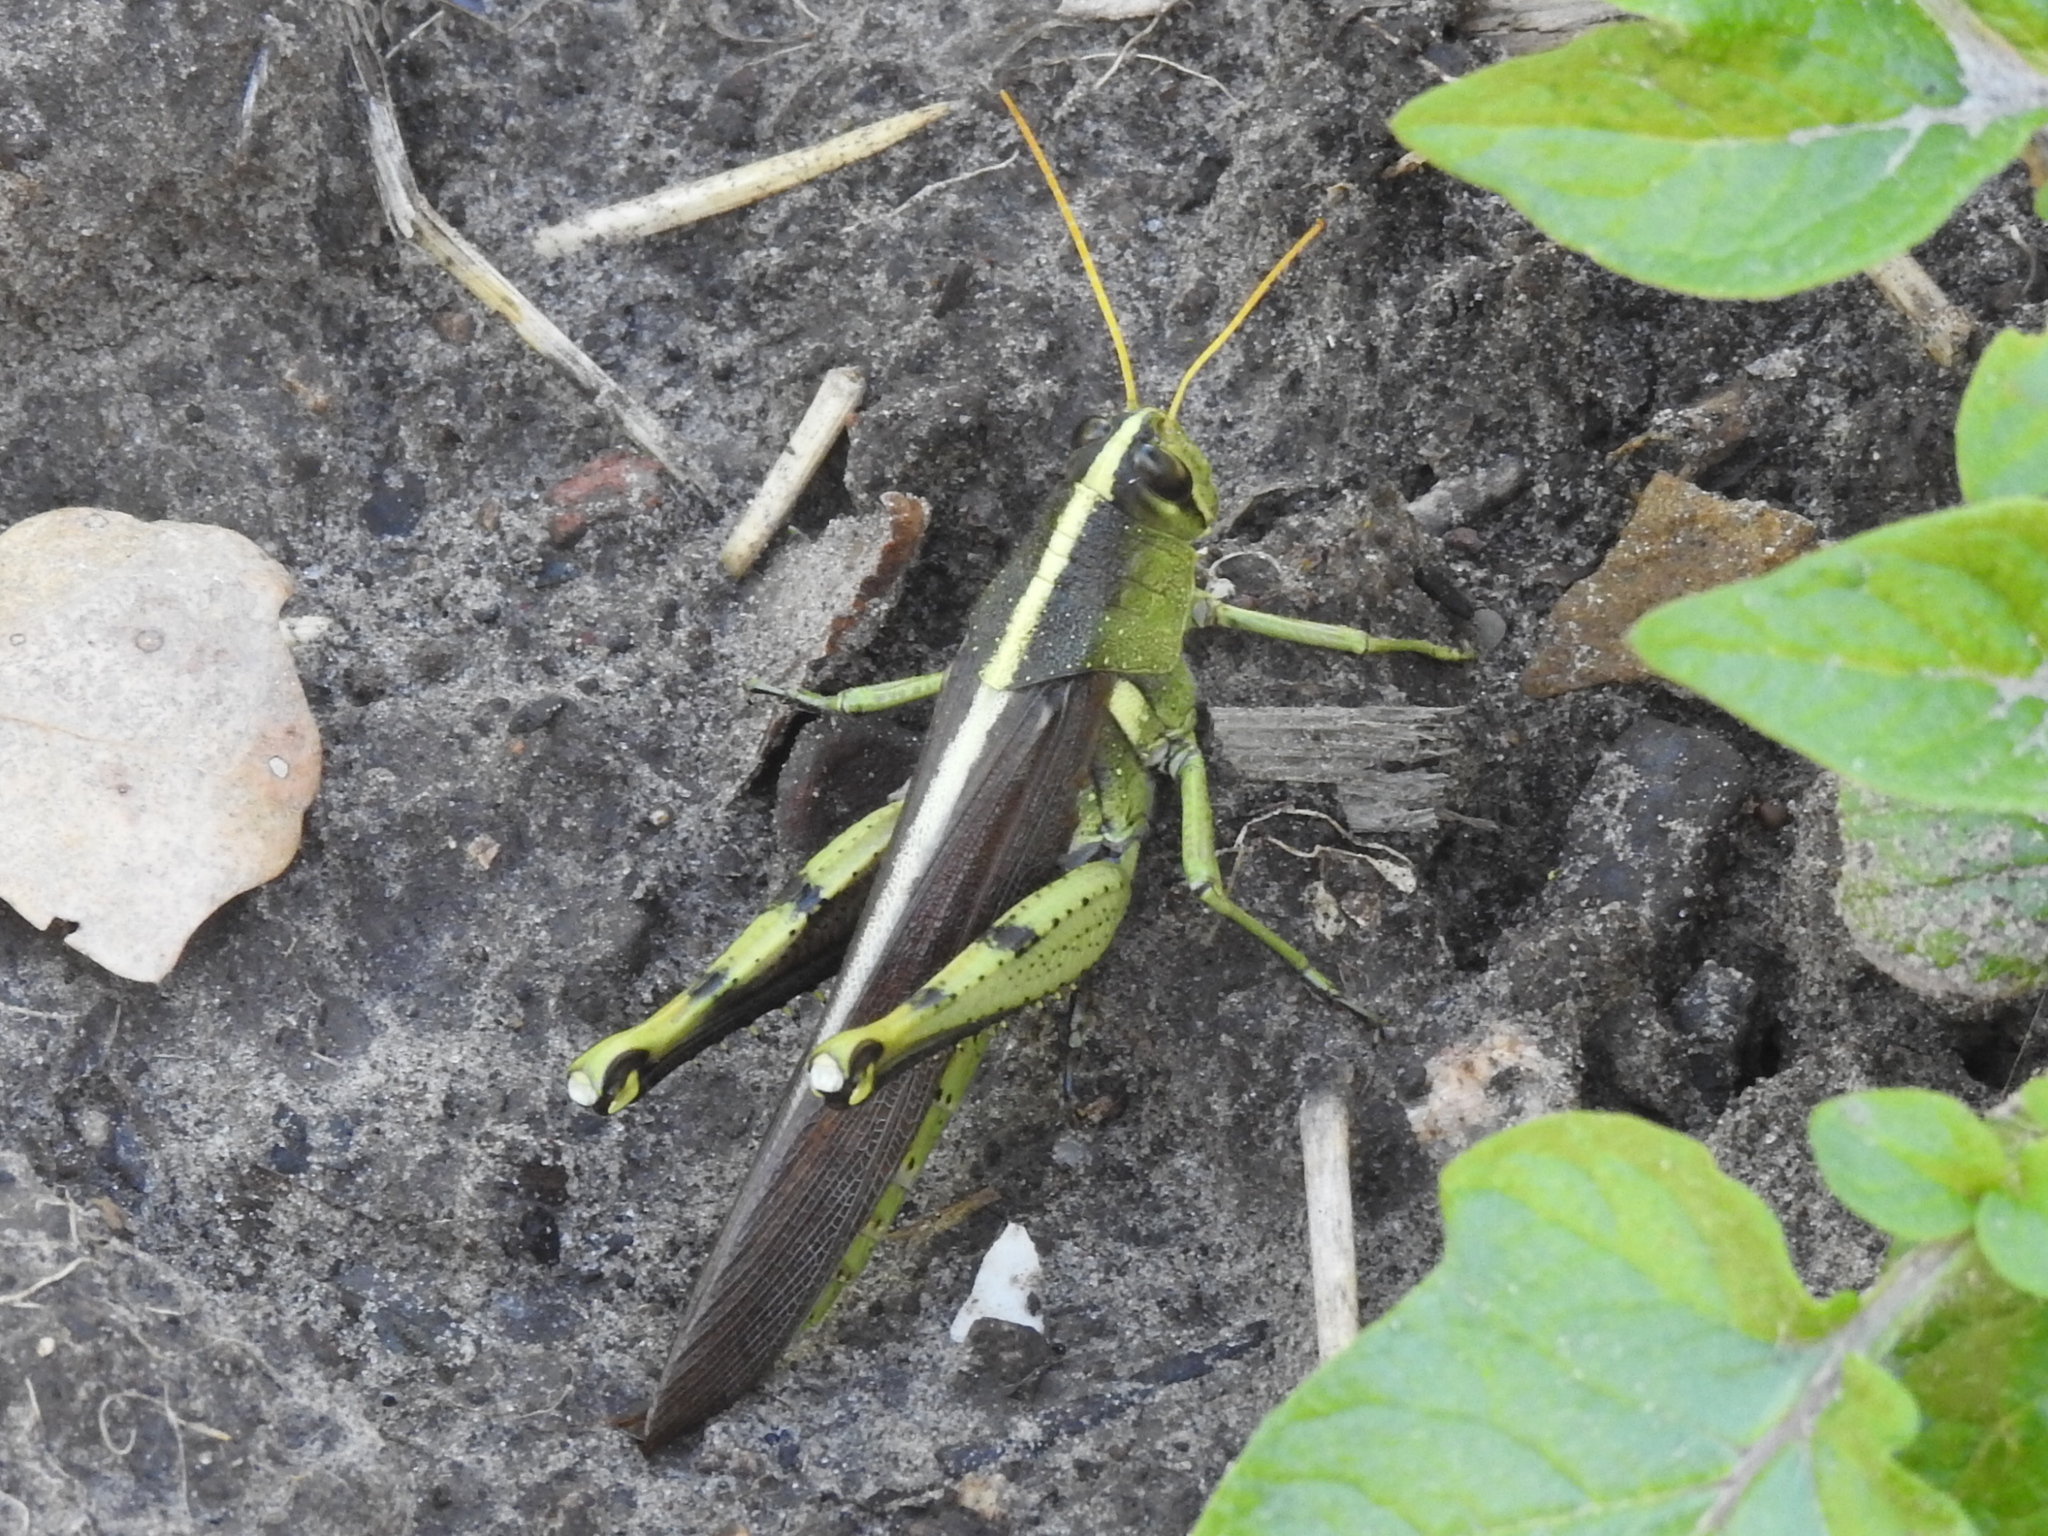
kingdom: Animalia
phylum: Arthropoda
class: Insecta
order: Orthoptera
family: Acrididae
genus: Schistocerca
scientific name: Schistocerca obscura
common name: Obscure bird grasshopper
